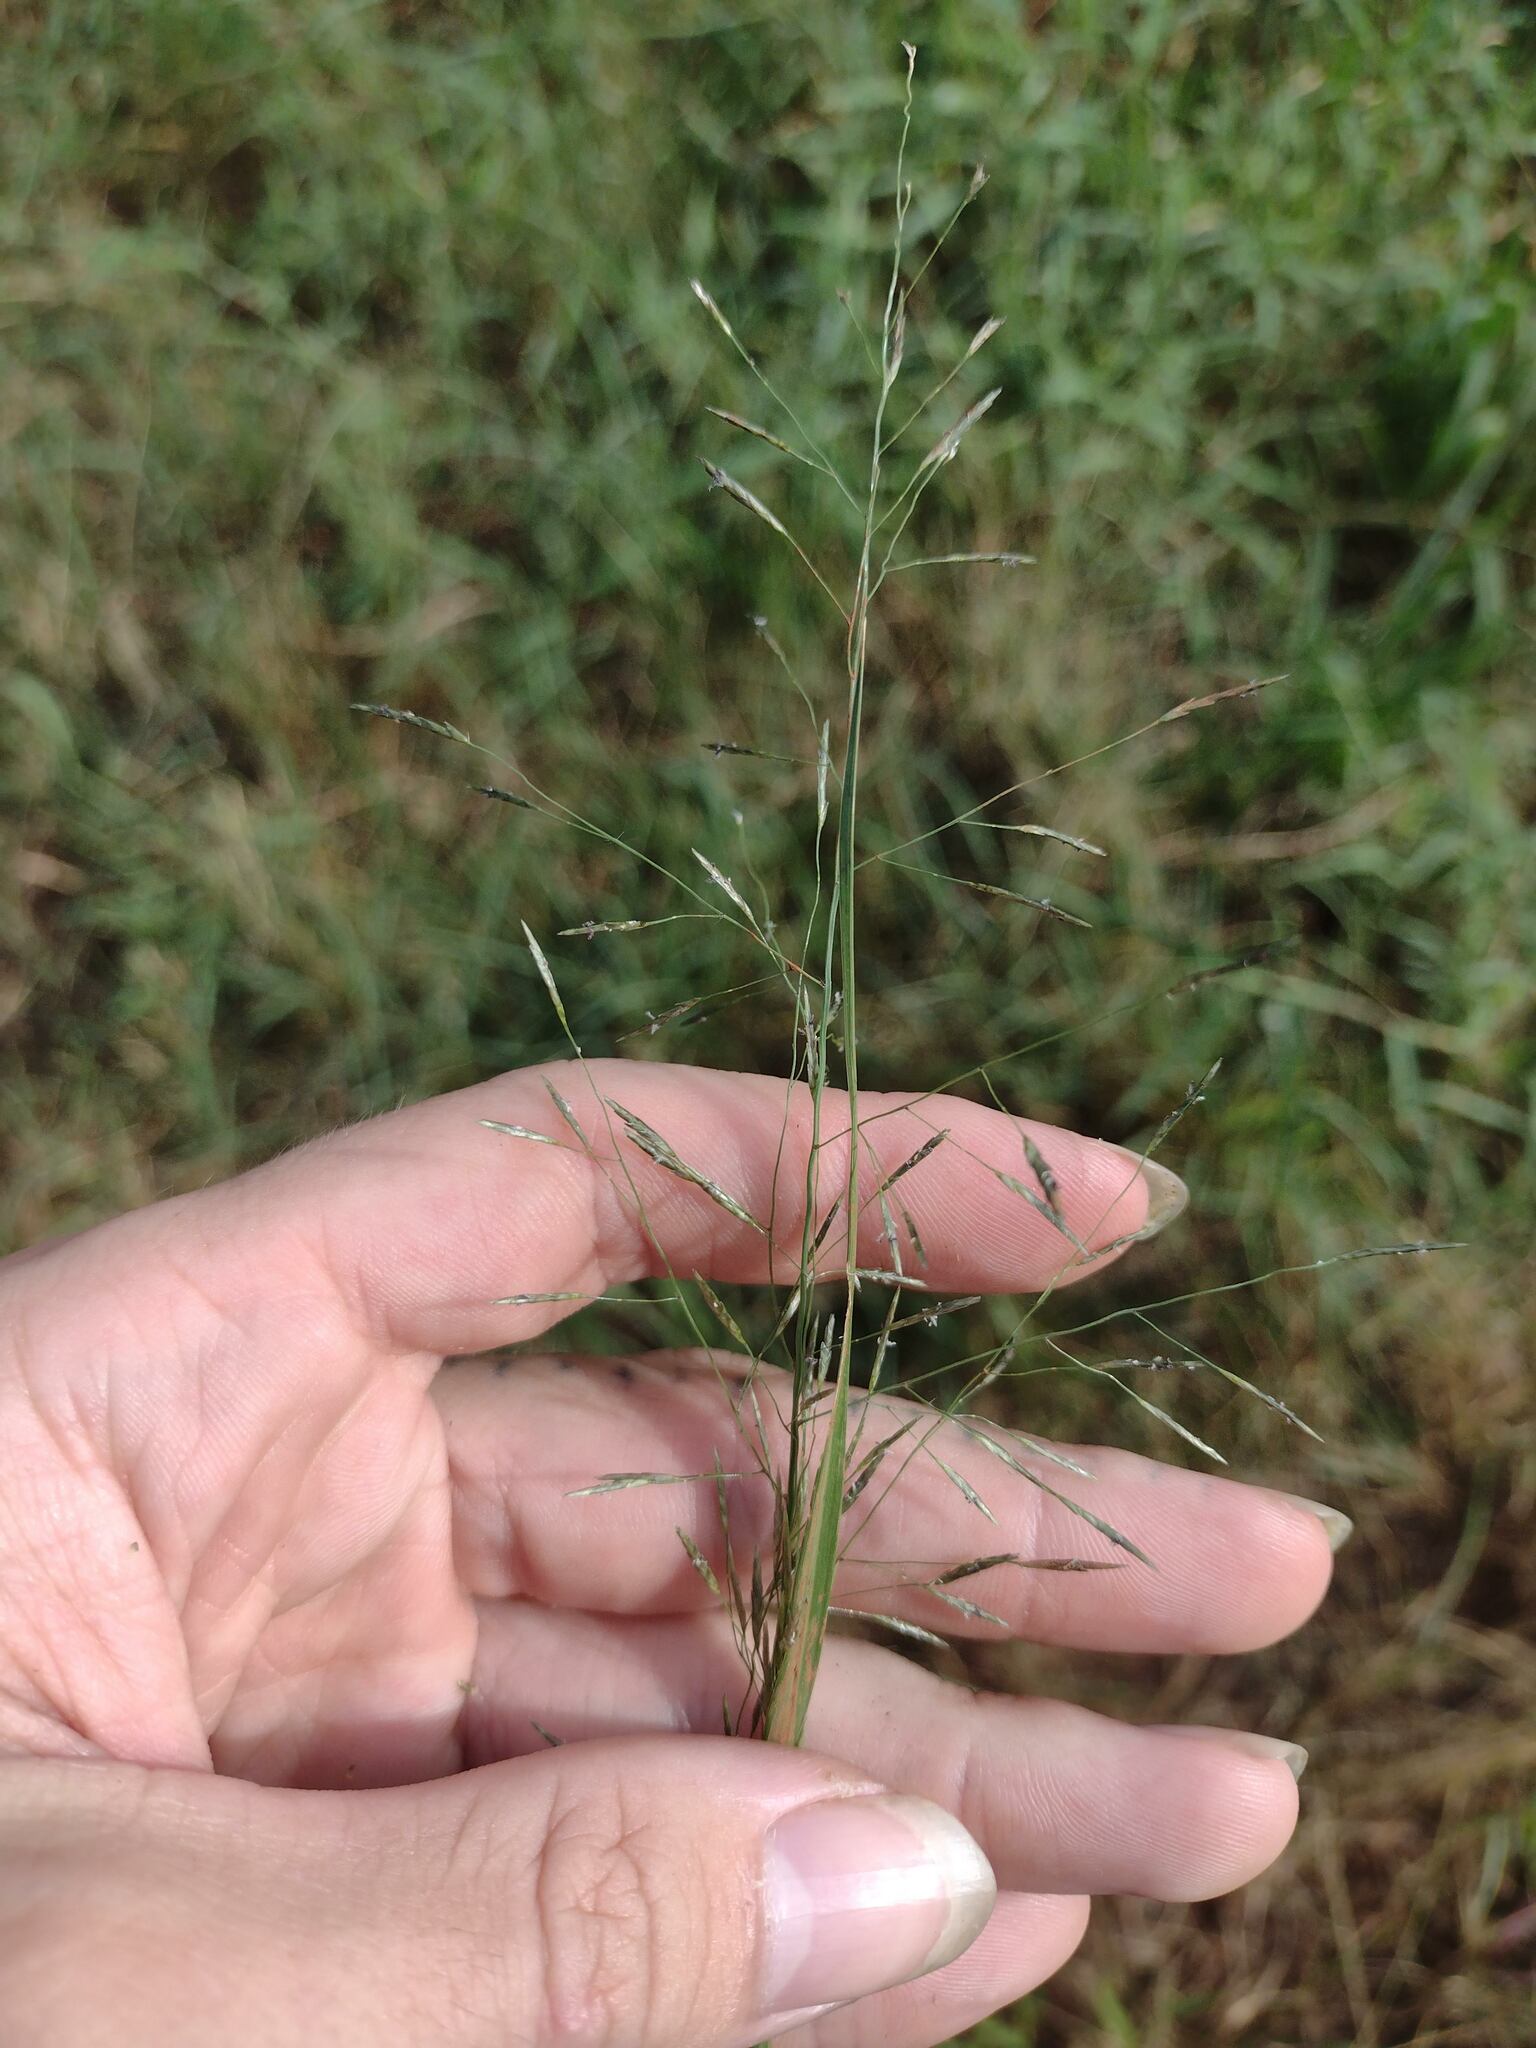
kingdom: Plantae
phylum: Tracheophyta
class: Liliopsida
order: Poales
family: Poaceae
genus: Eragrostis
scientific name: Eragrostis tenuifolia
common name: Elastic grass
